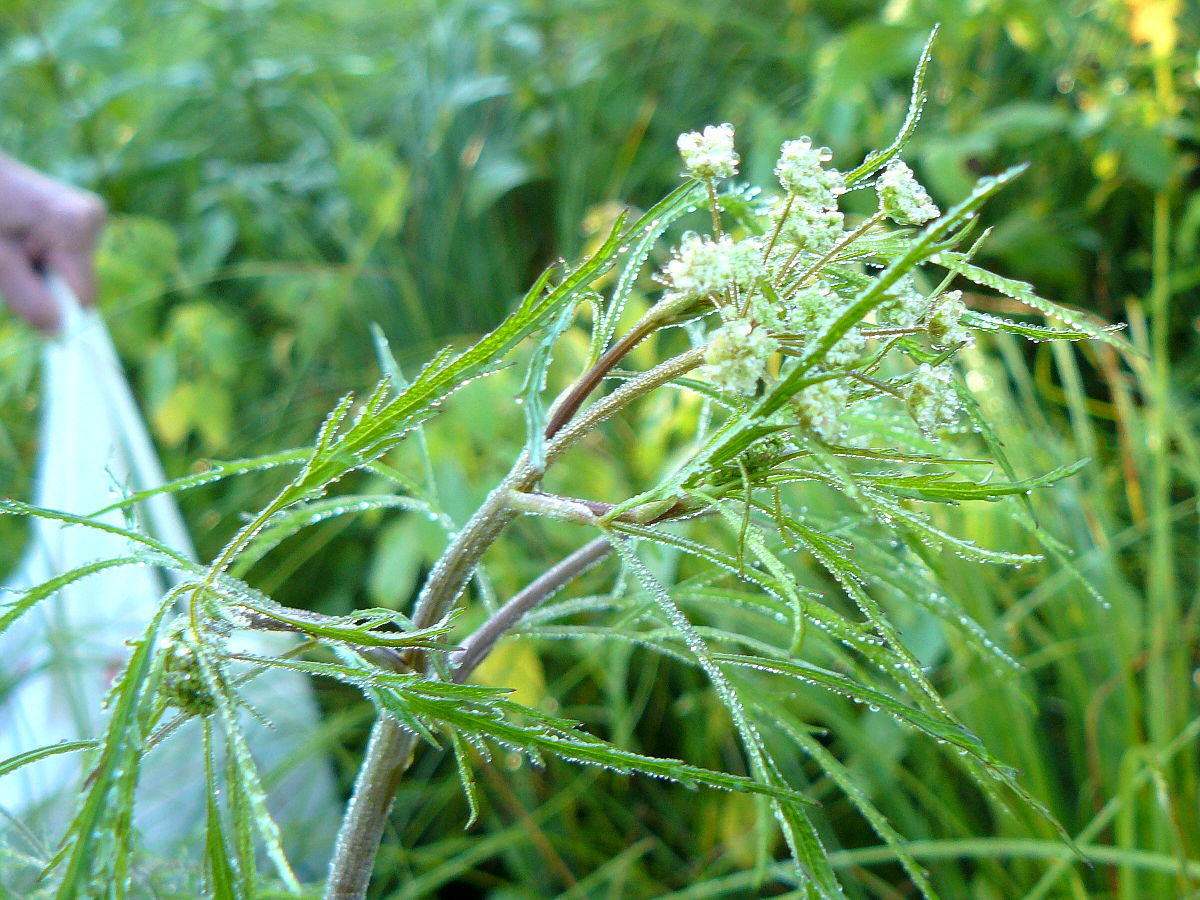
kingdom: Plantae
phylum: Tracheophyta
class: Magnoliopsida
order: Apiales
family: Apiaceae
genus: Cicuta
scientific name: Cicuta bulbifera
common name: Bulb-bearing water-hemlock
